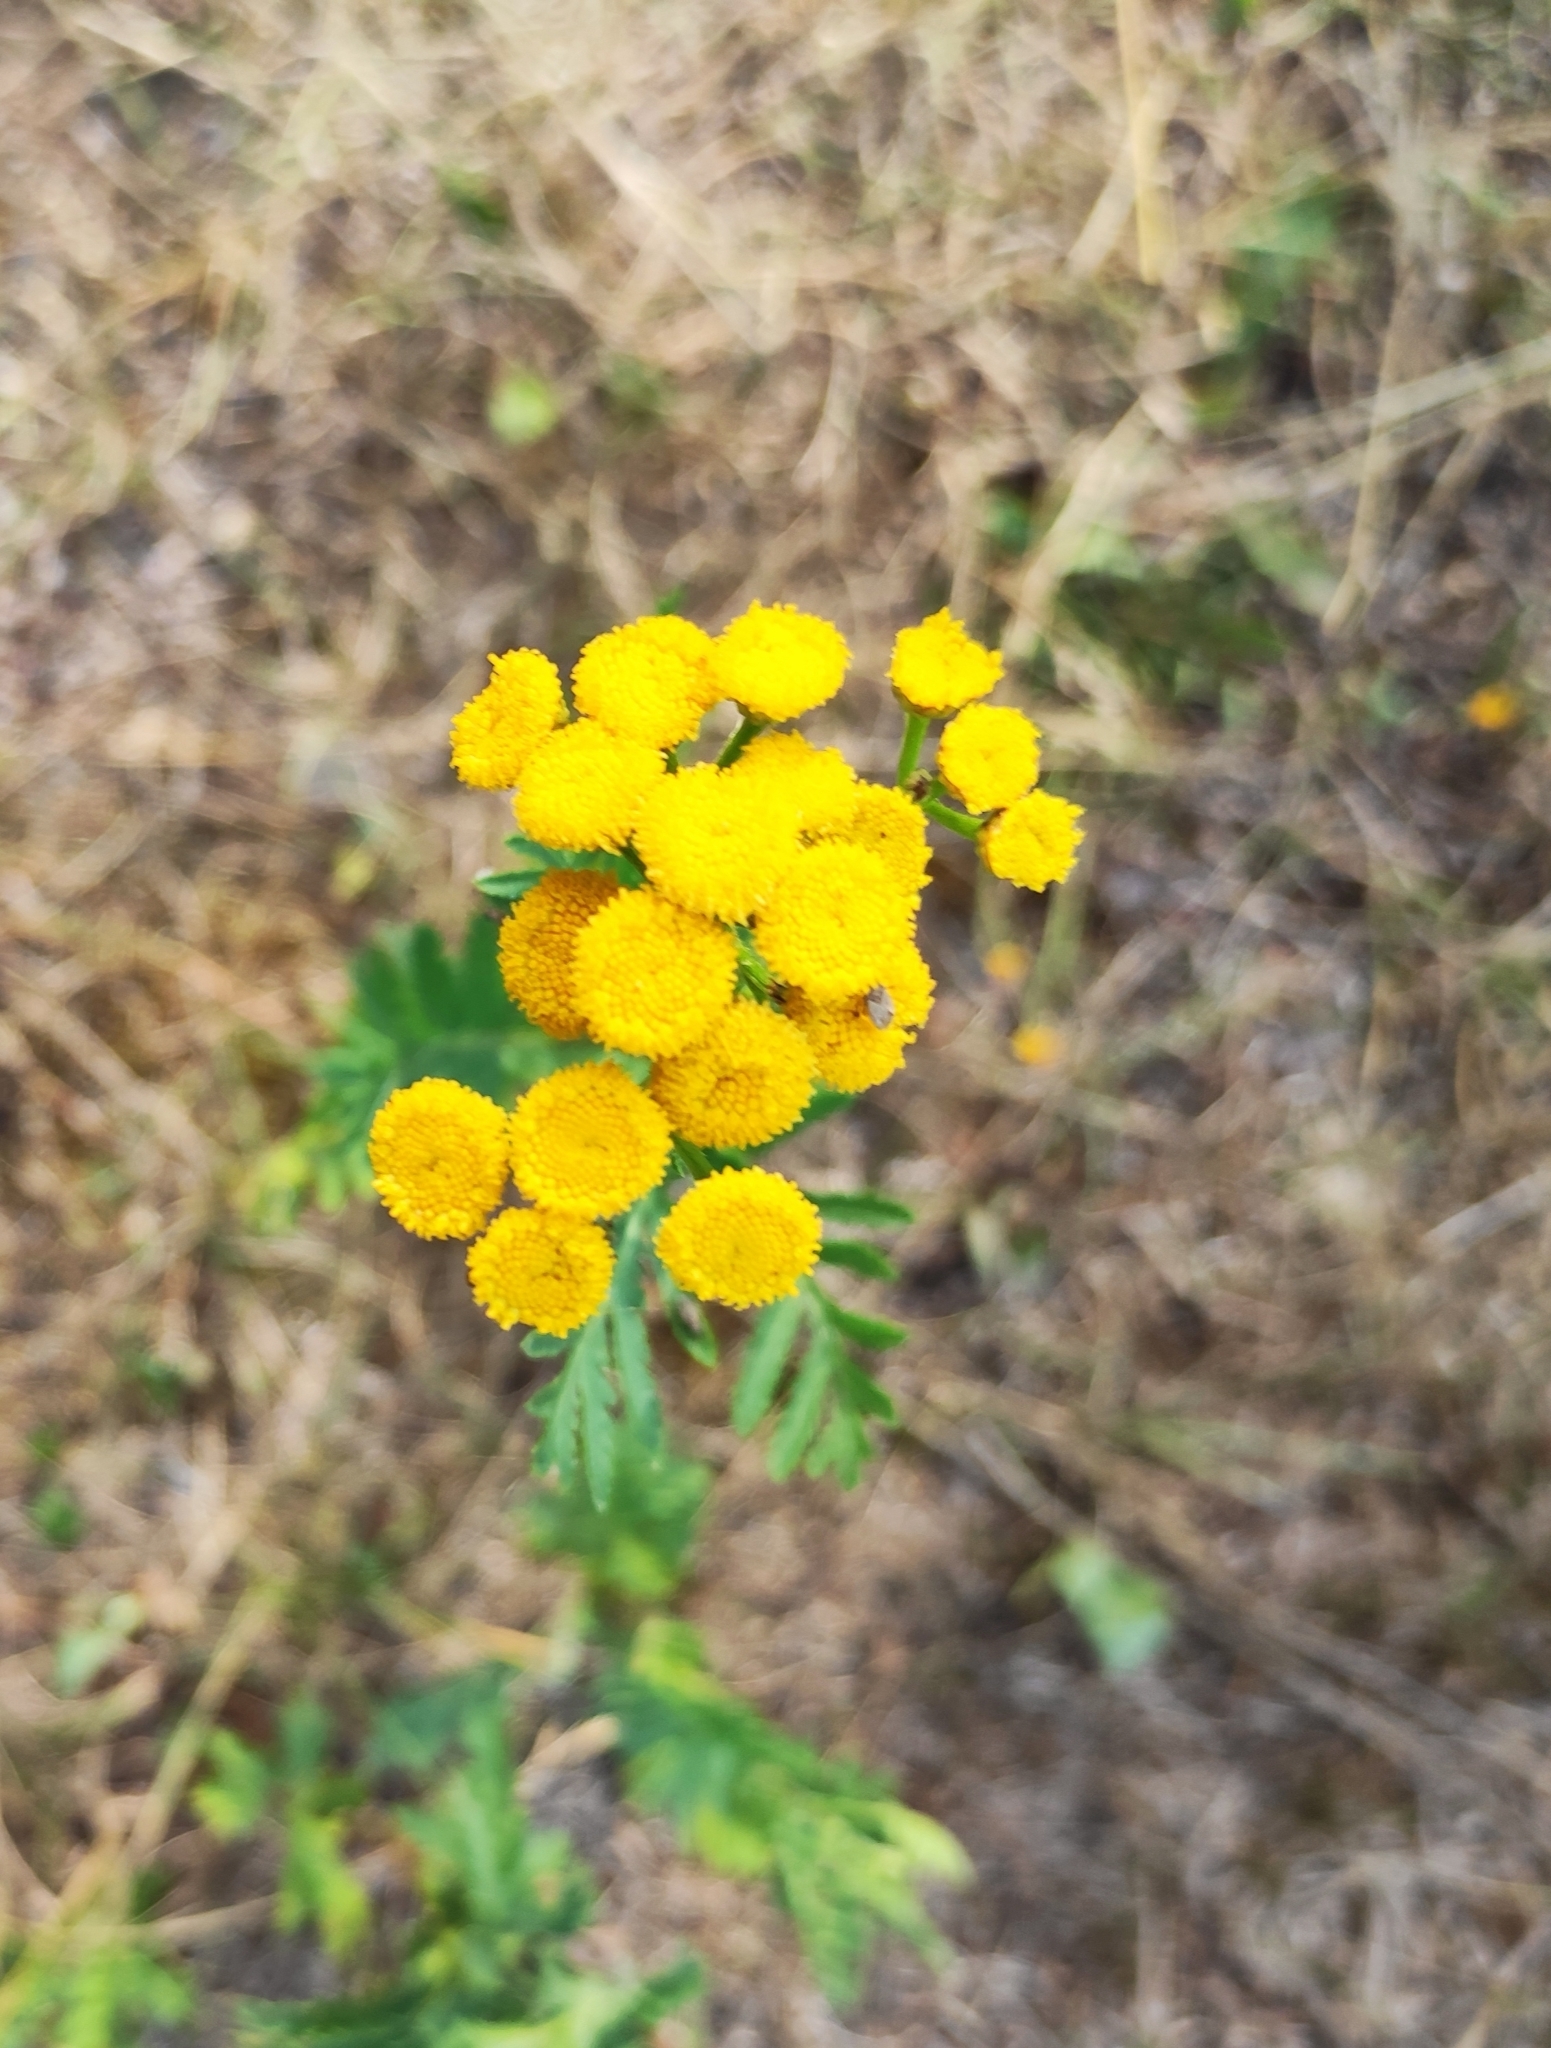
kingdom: Plantae
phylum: Tracheophyta
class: Magnoliopsida
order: Asterales
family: Asteraceae
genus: Tanacetum
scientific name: Tanacetum vulgare
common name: Common tansy
